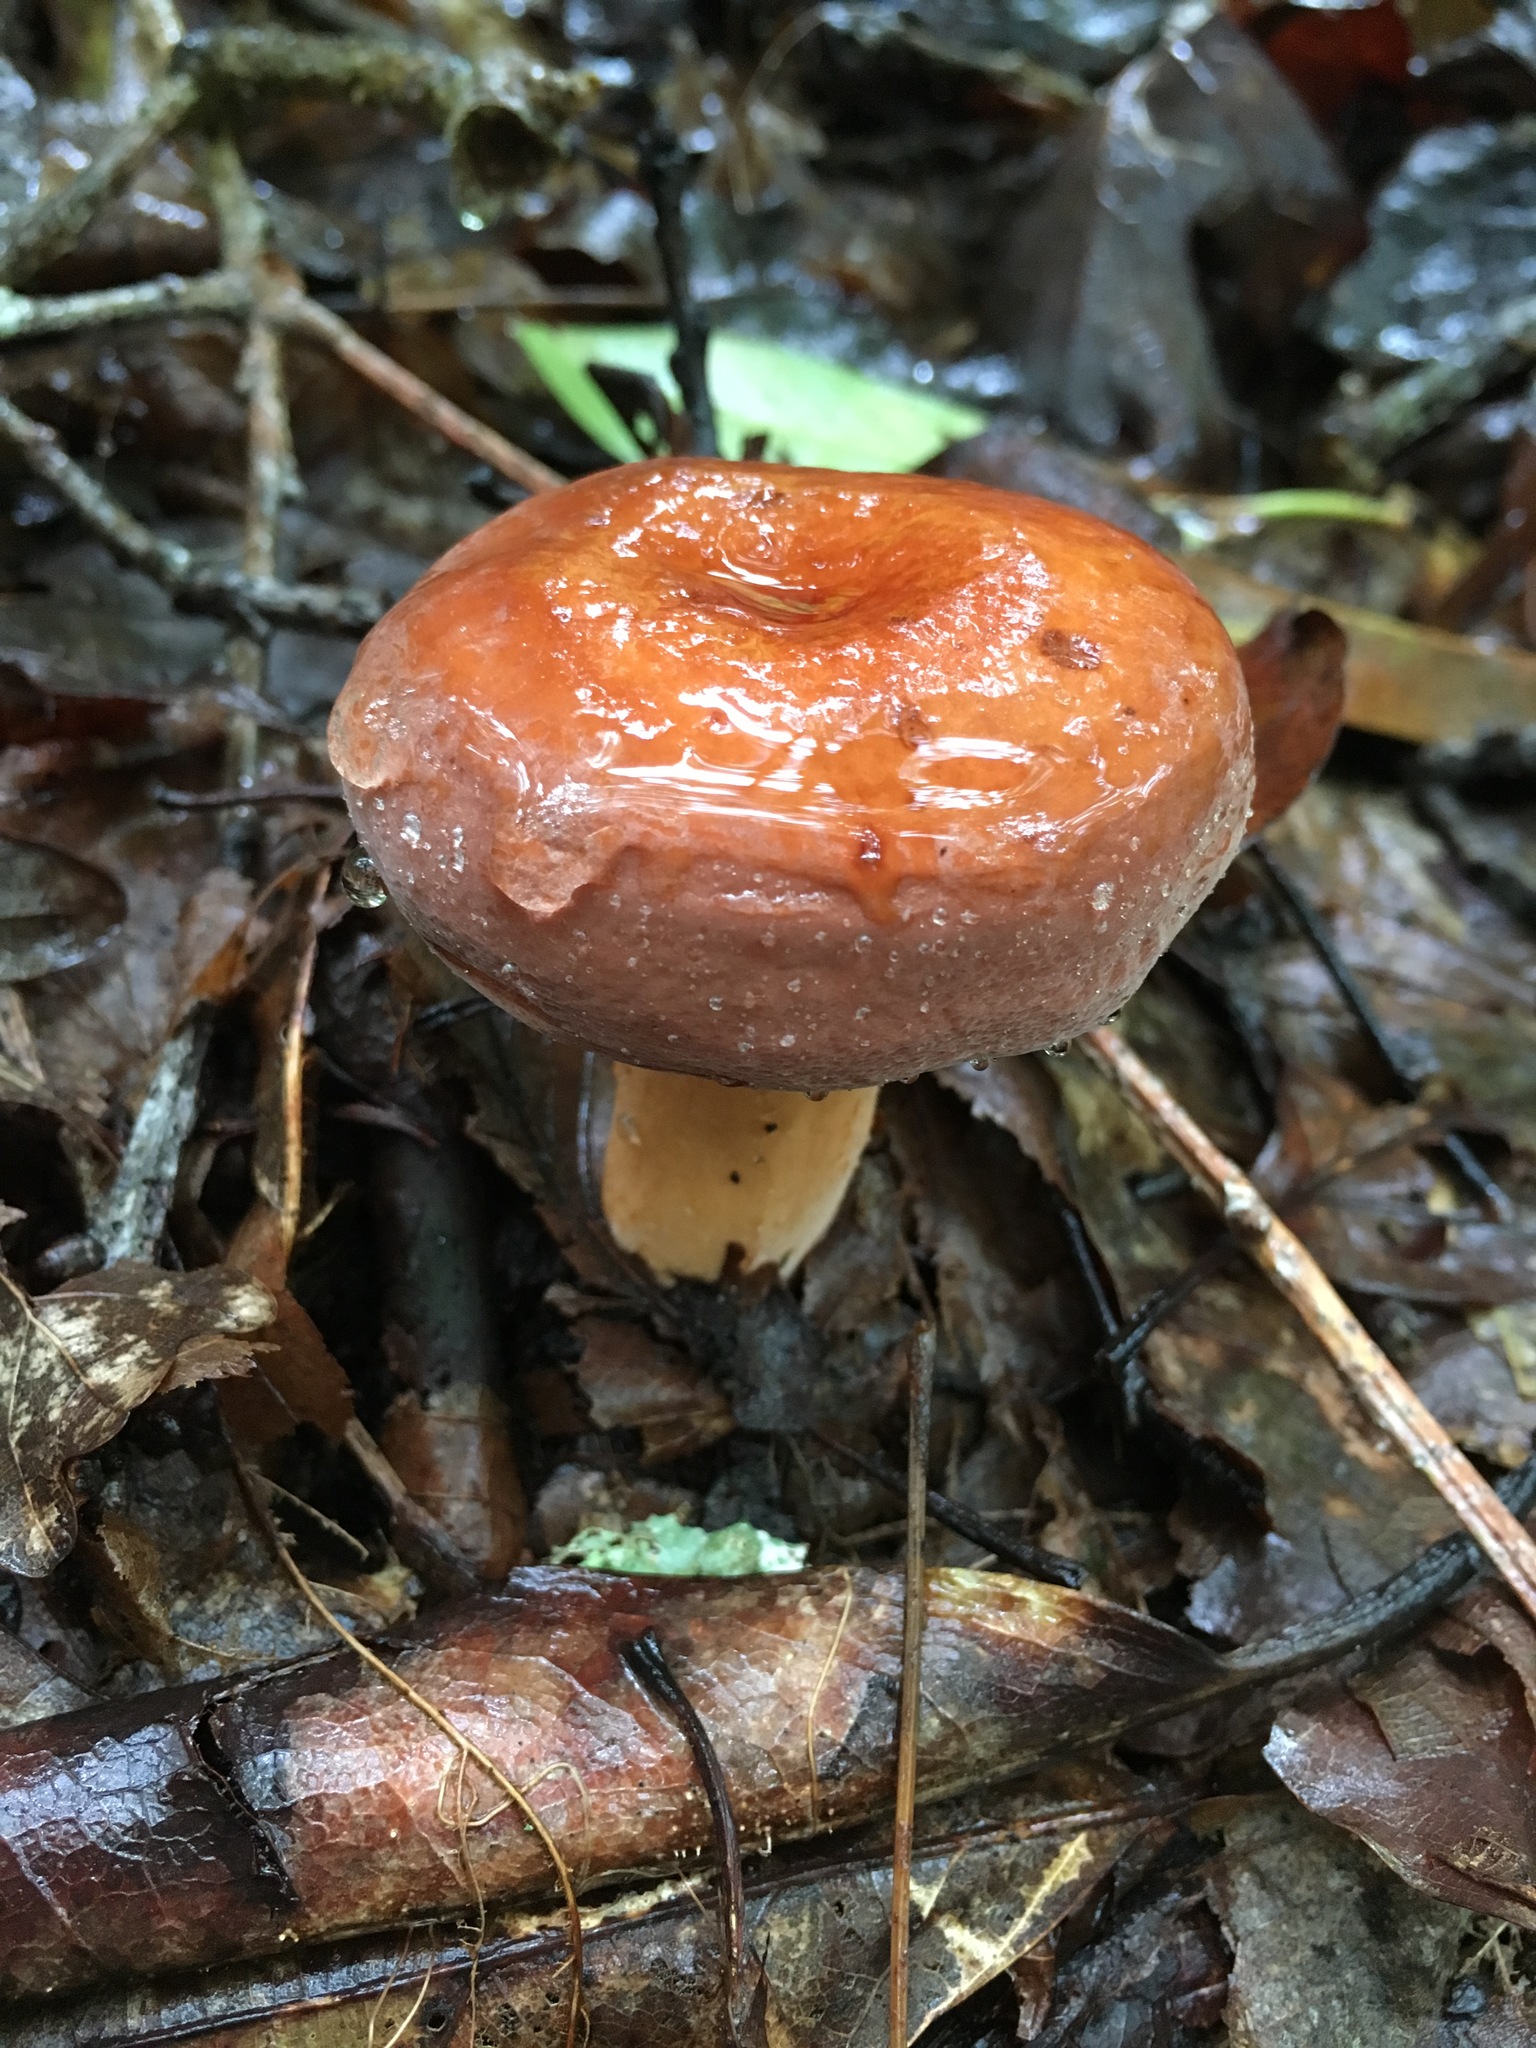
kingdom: Fungi
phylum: Basidiomycota
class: Agaricomycetes
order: Russulales
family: Russulaceae
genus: Lactarius
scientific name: Lactarius corrugis
